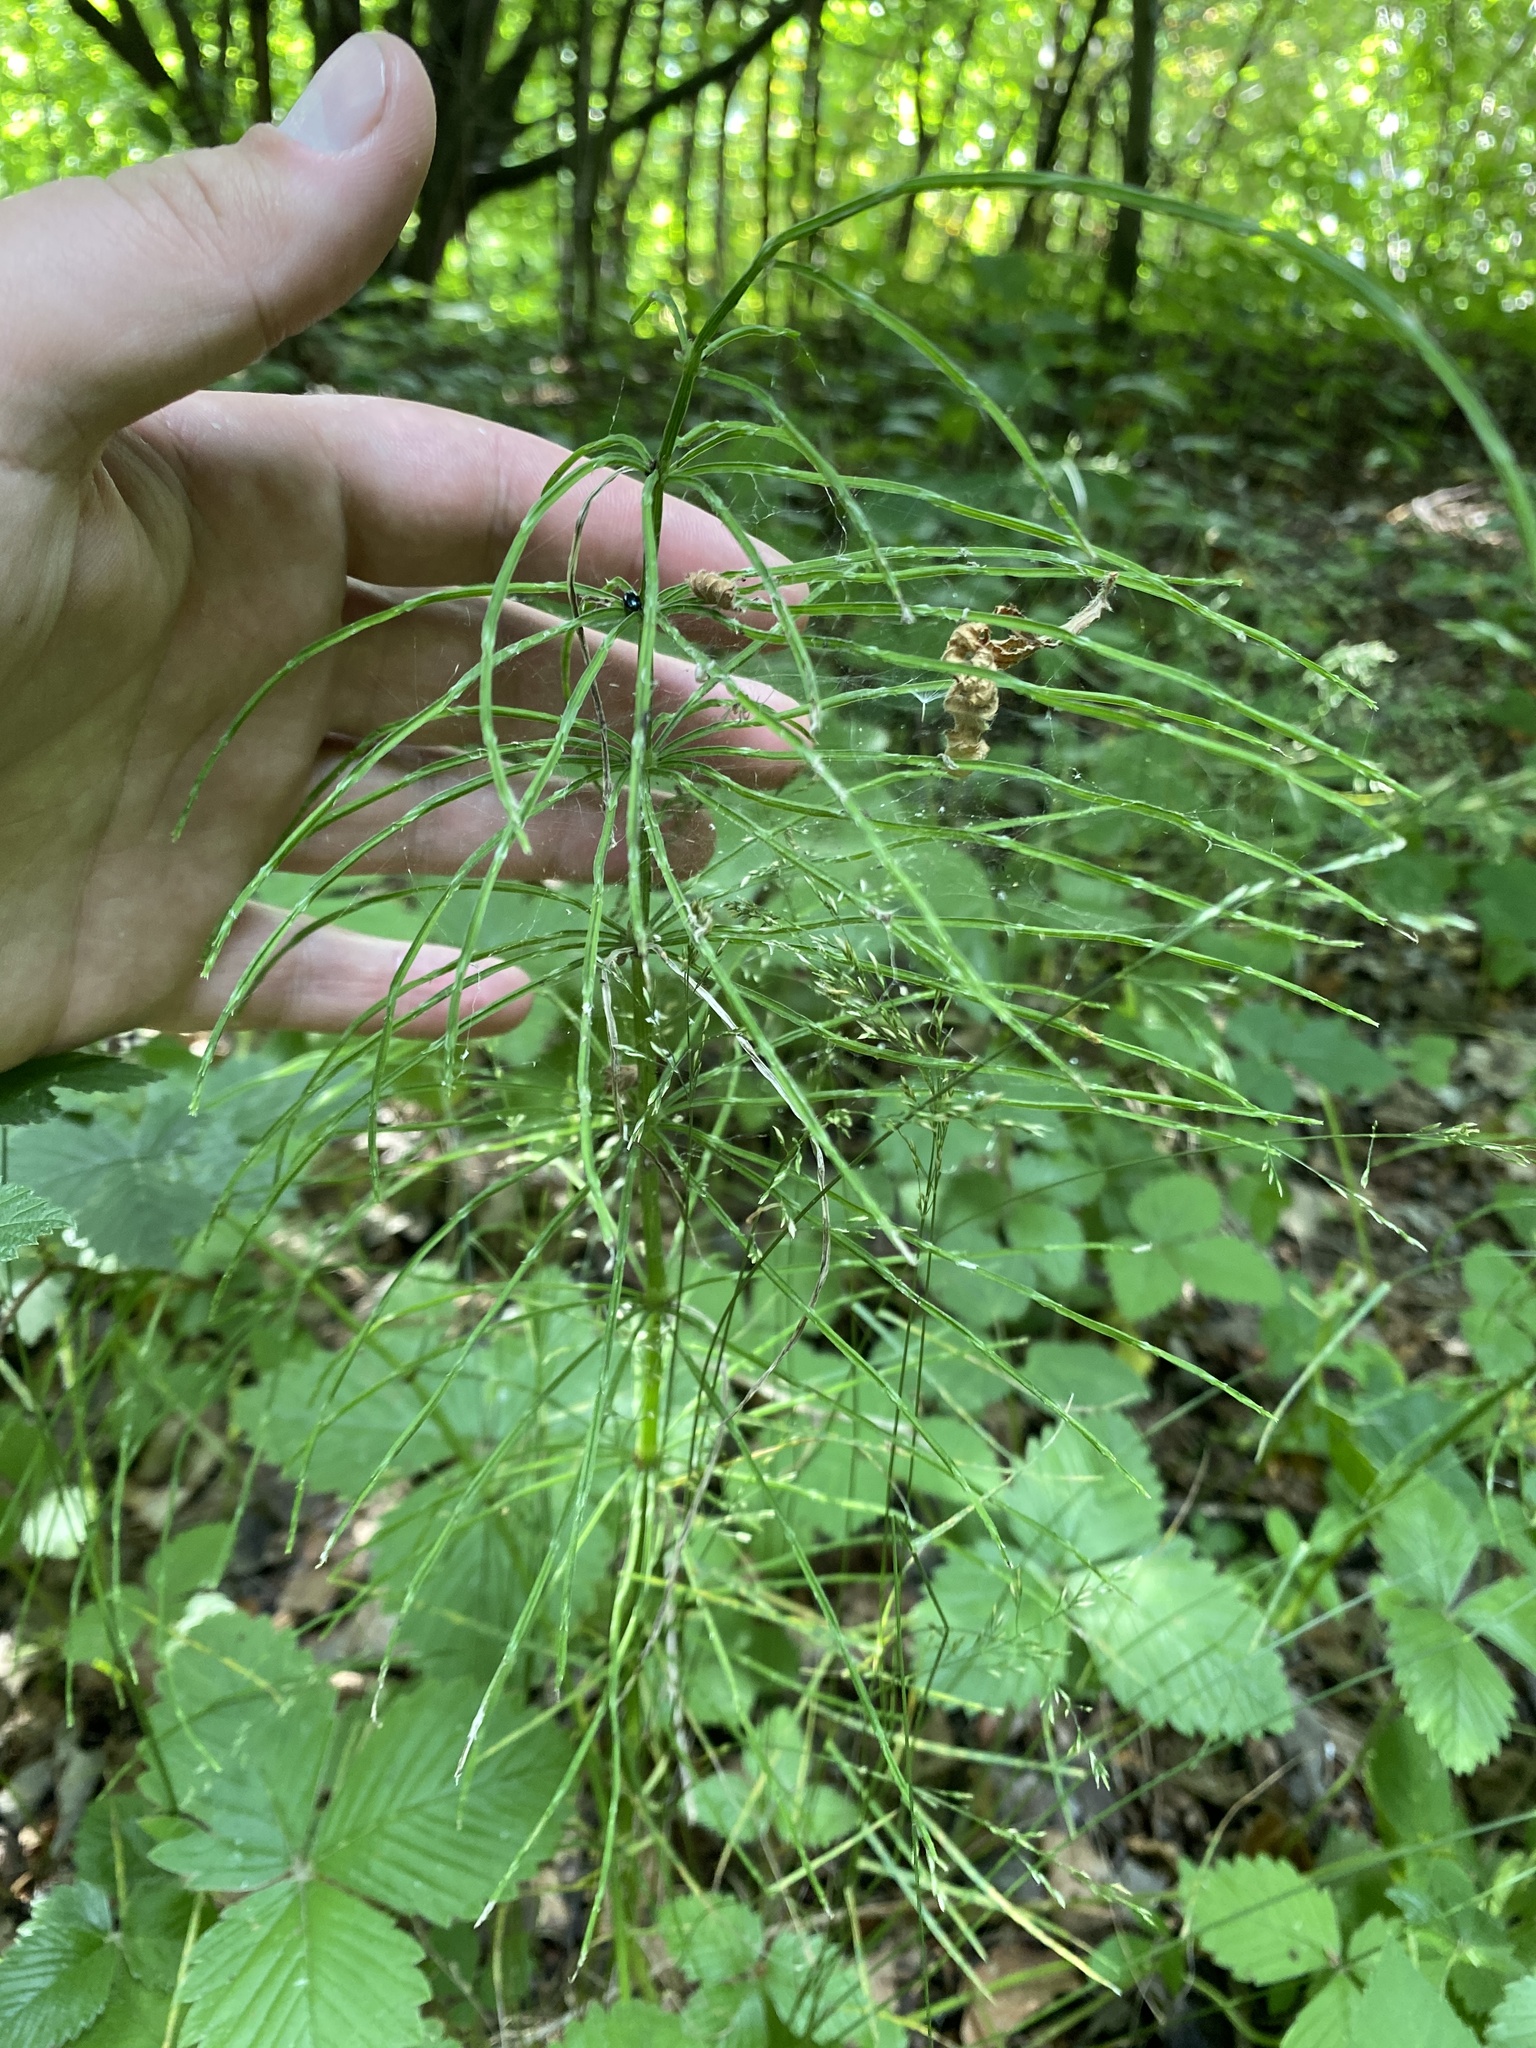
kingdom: Plantae
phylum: Tracheophyta
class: Polypodiopsida
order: Equisetales
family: Equisetaceae
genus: Equisetum
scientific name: Equisetum arvense
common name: Field horsetail
